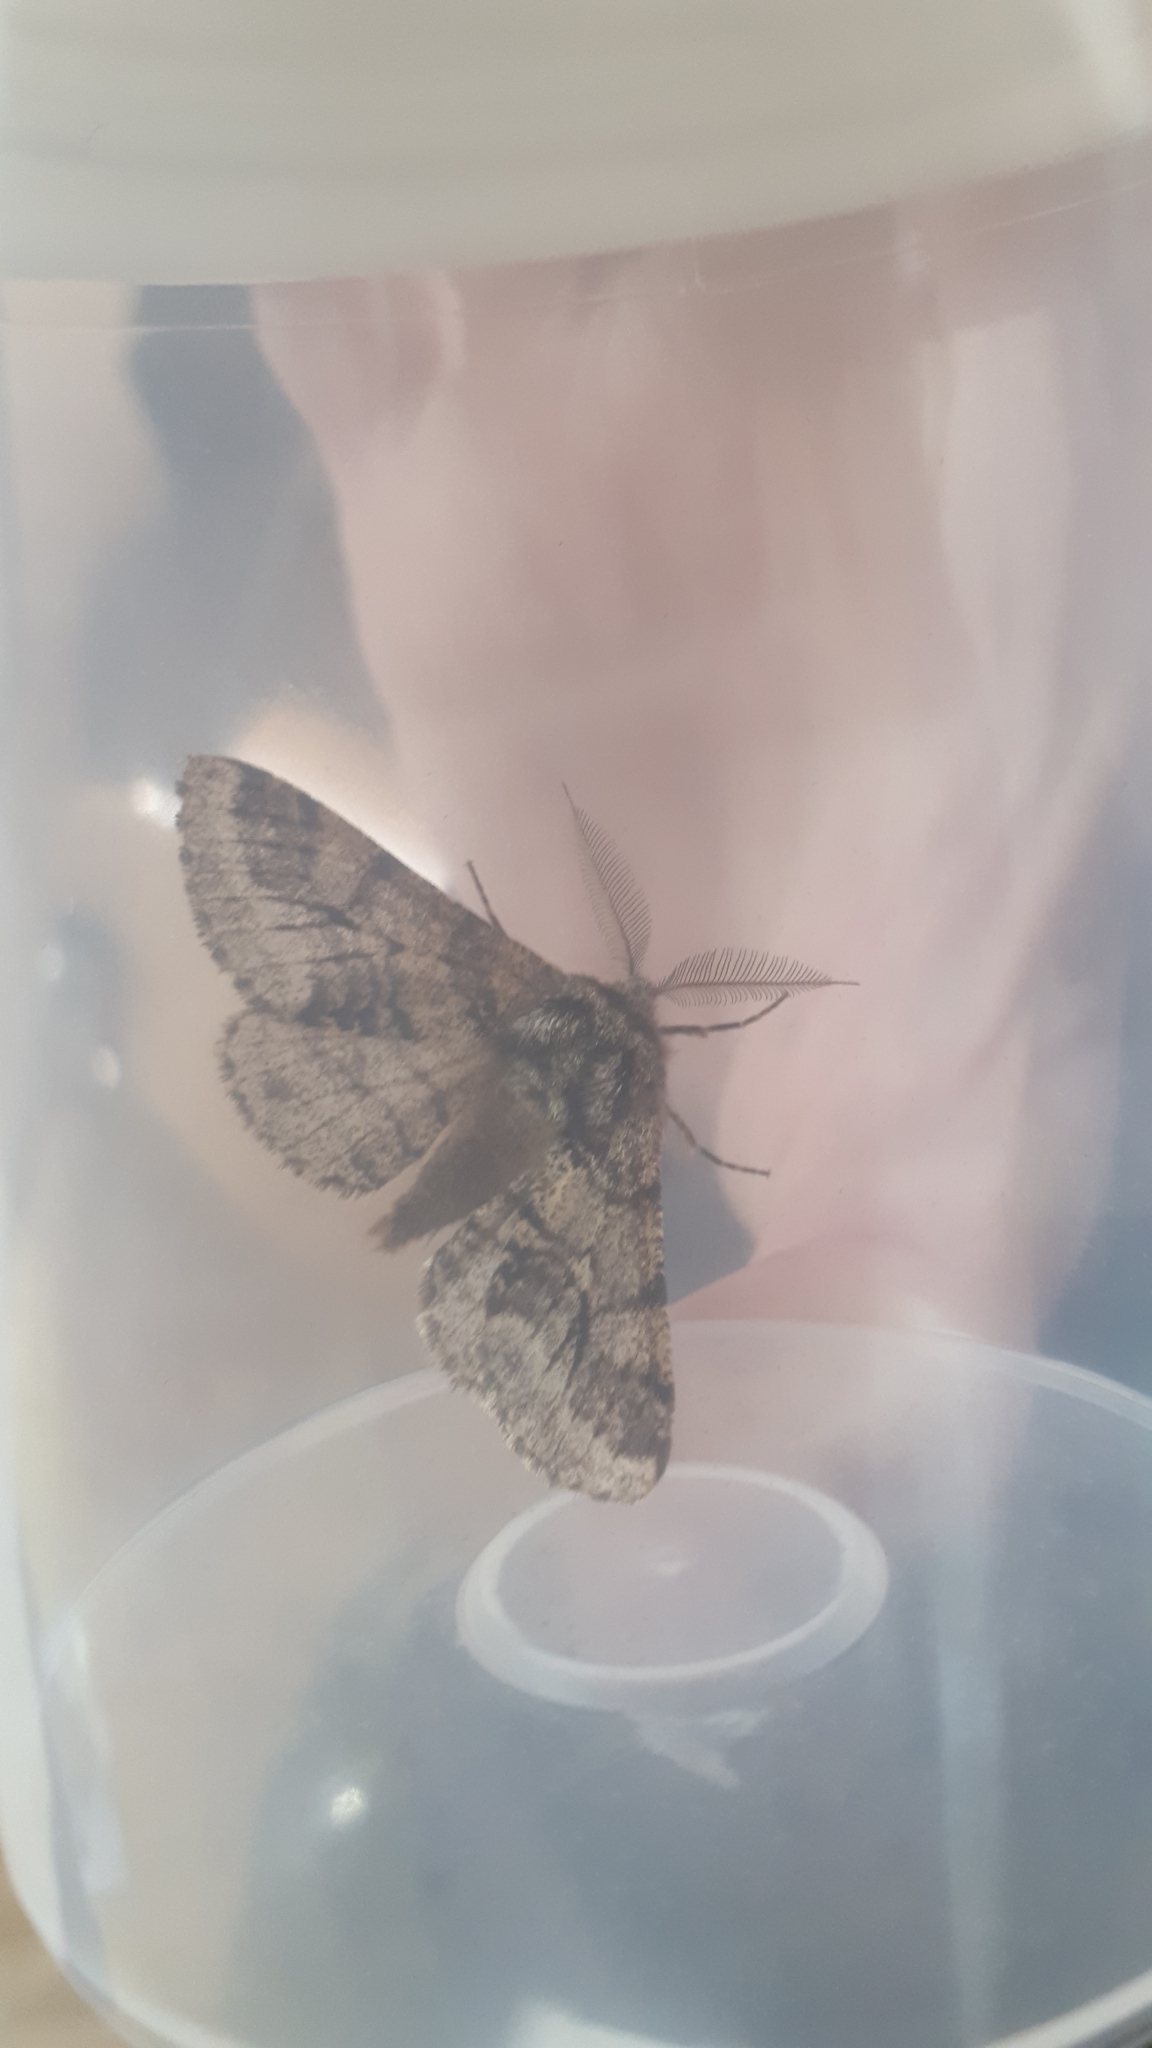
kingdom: Animalia
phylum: Arthropoda
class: Insecta
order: Lepidoptera
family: Geometridae
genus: Lycia
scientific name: Lycia hirtaria
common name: Brindled beauty
